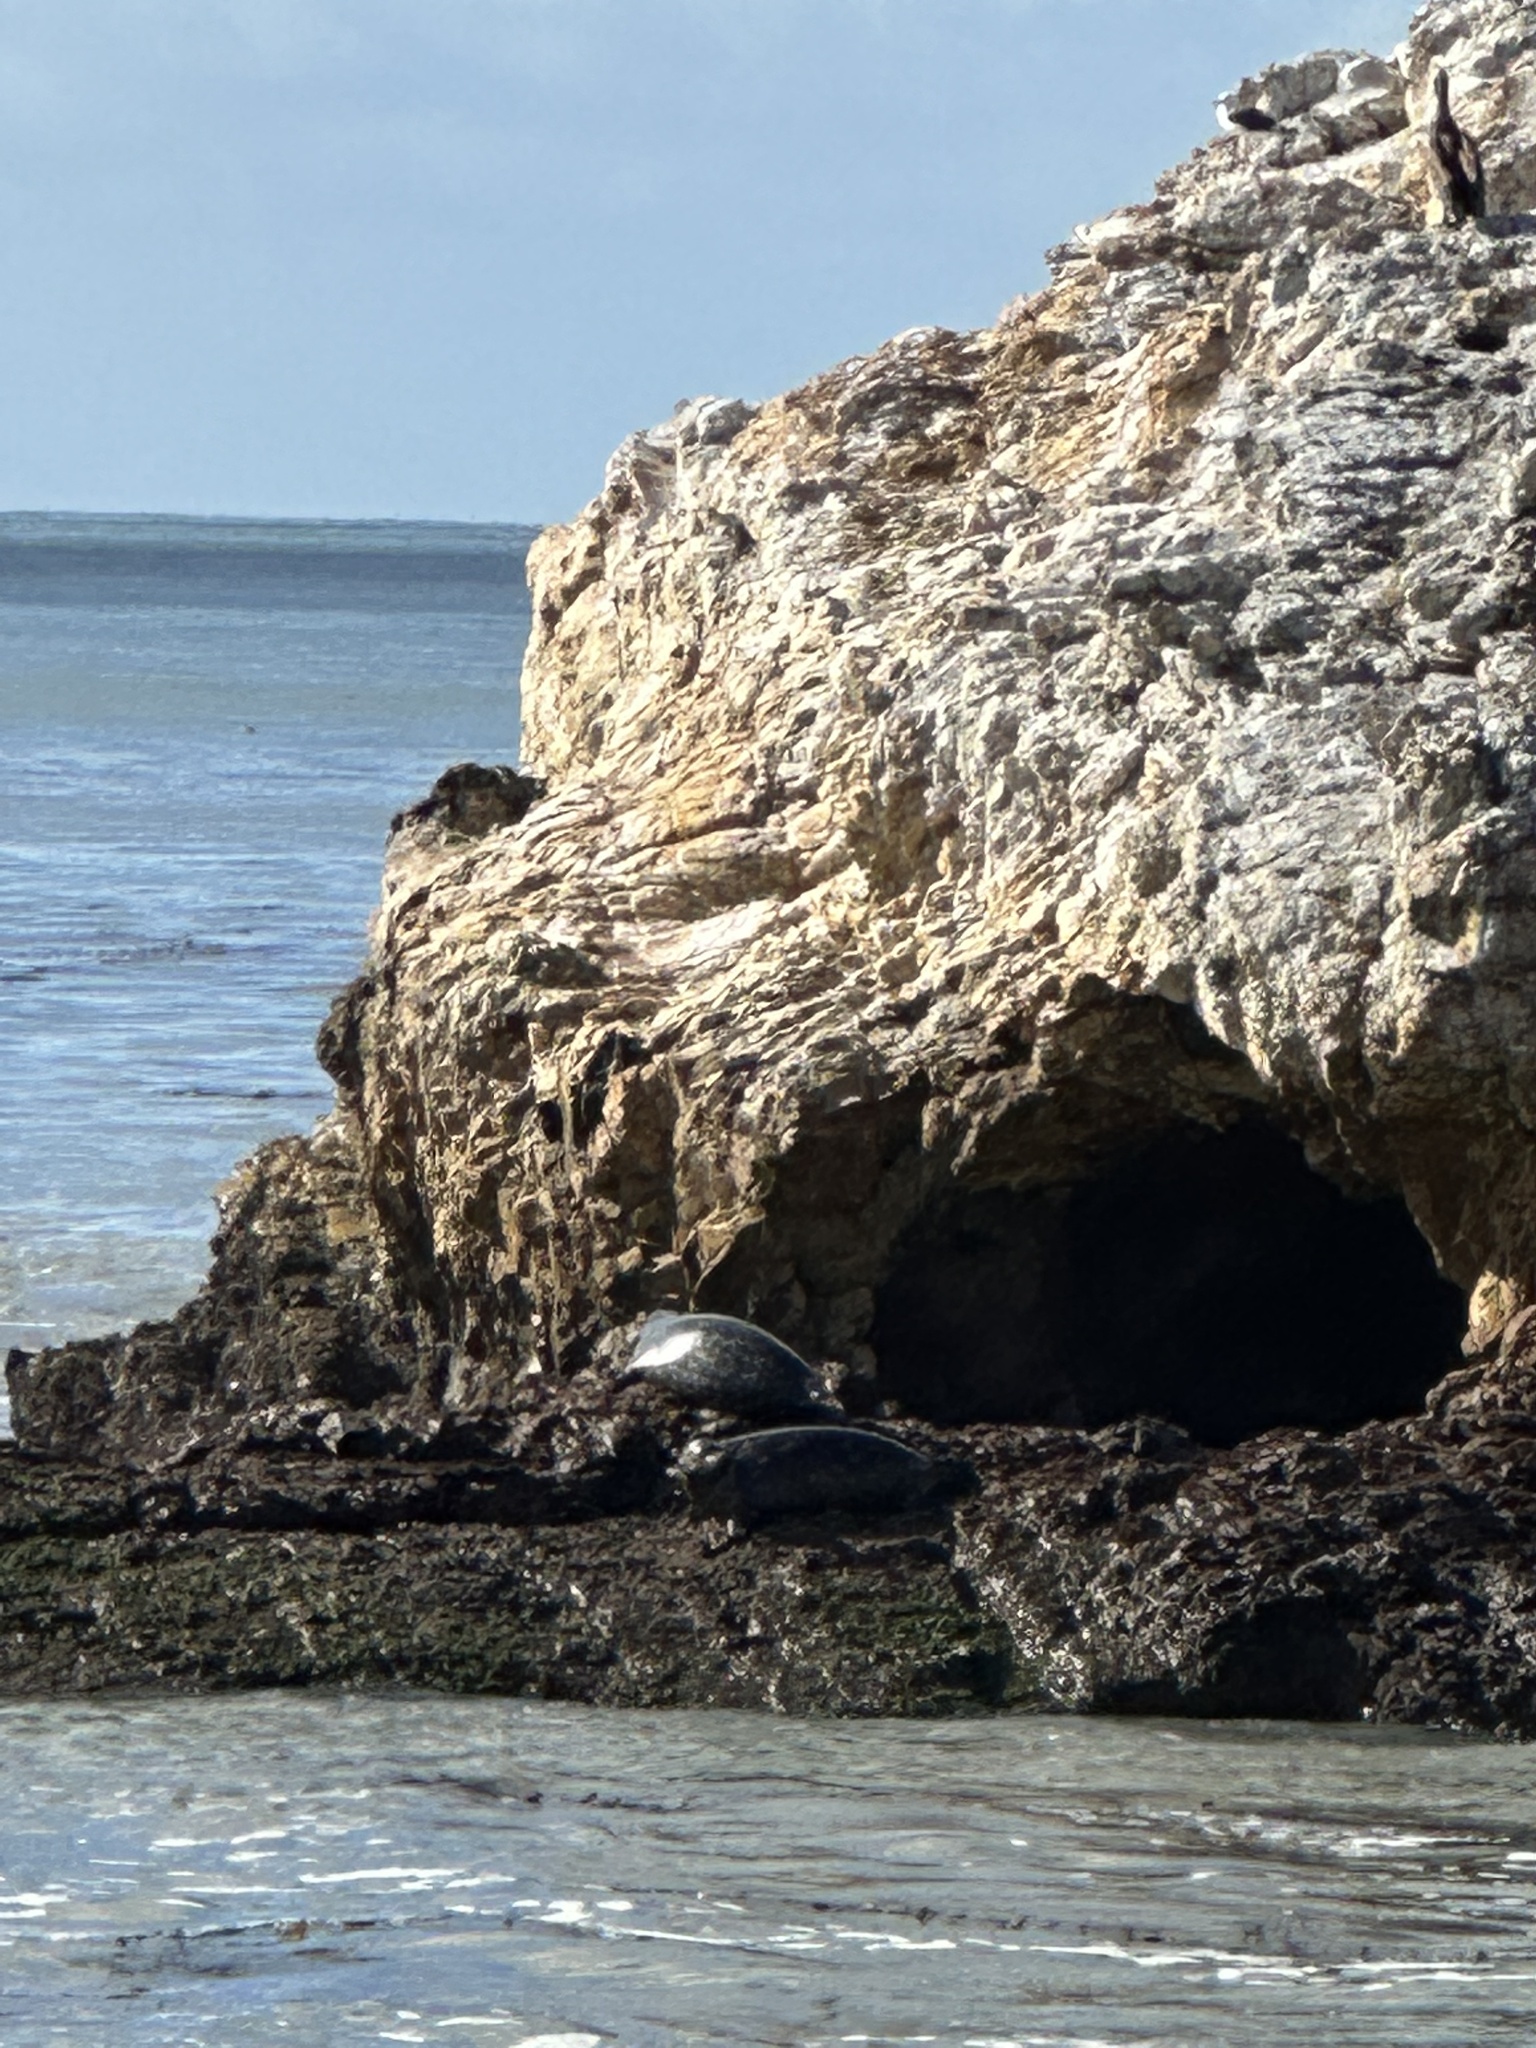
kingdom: Animalia
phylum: Chordata
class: Mammalia
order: Carnivora
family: Phocidae
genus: Phoca
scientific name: Phoca vitulina
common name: Harbor seal
